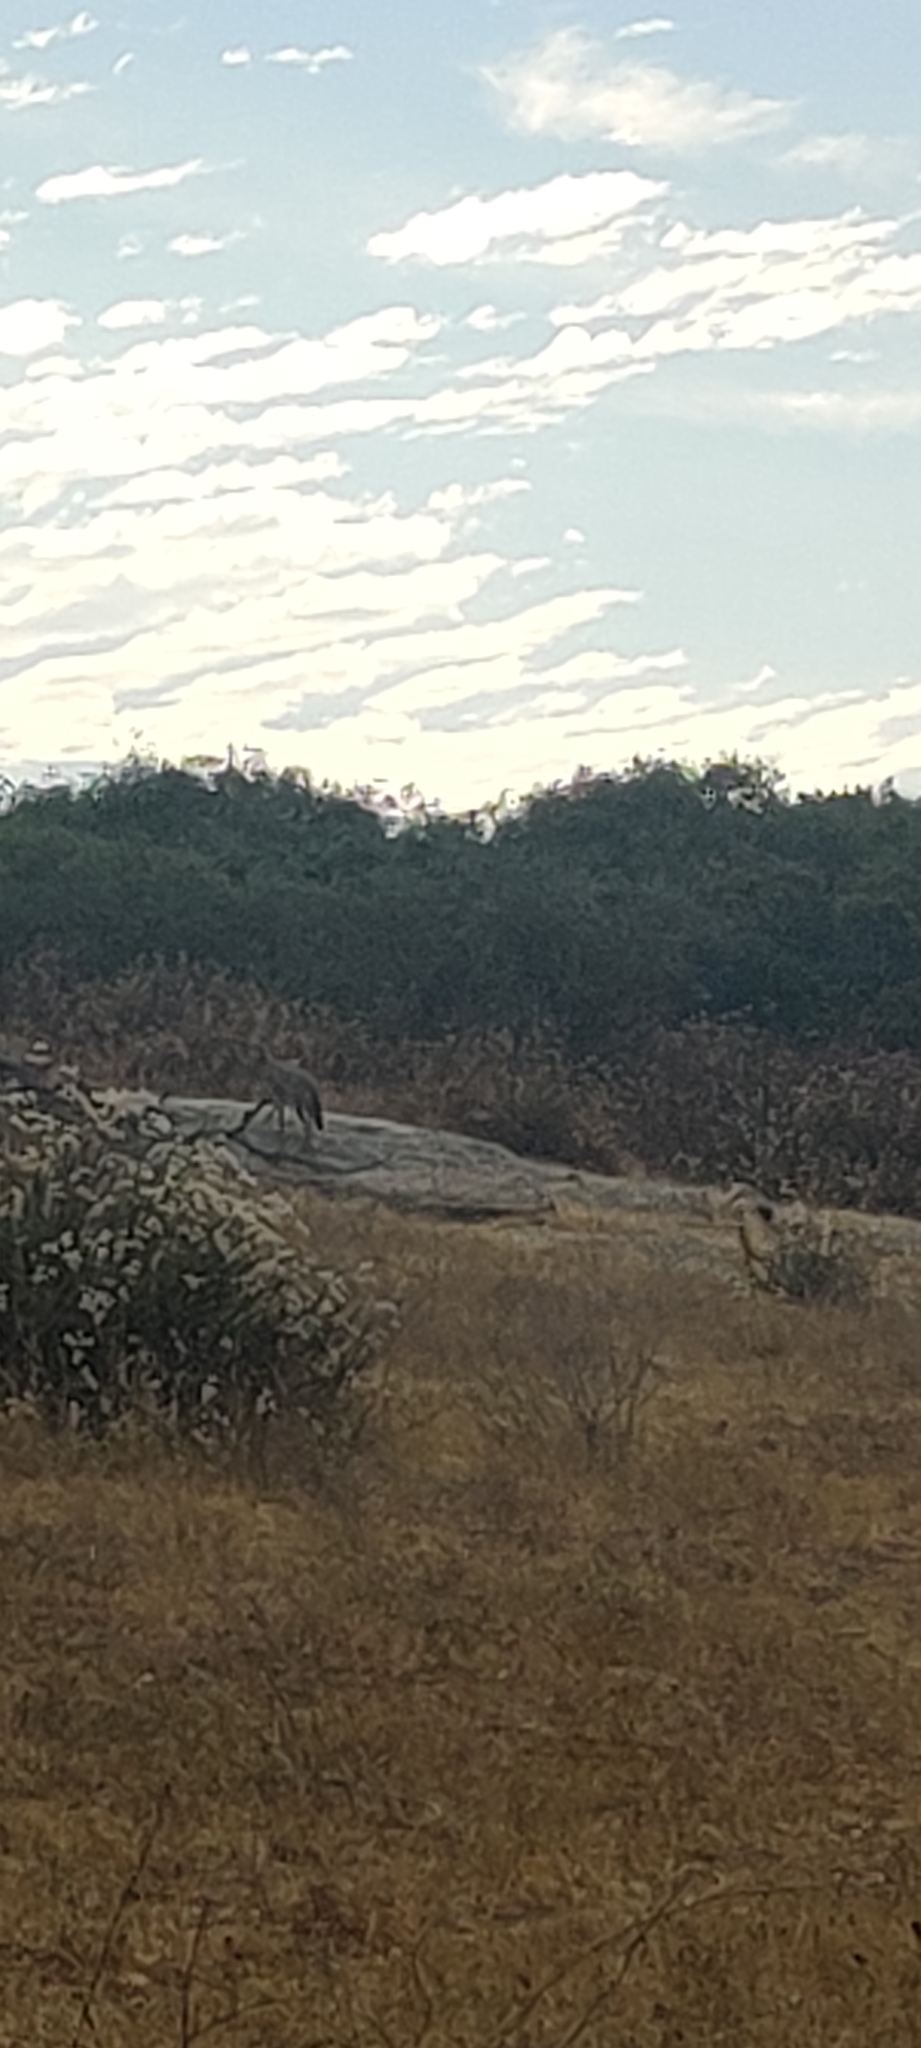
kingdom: Animalia
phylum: Chordata
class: Mammalia
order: Carnivora
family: Canidae
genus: Canis
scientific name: Canis latrans
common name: Coyote
